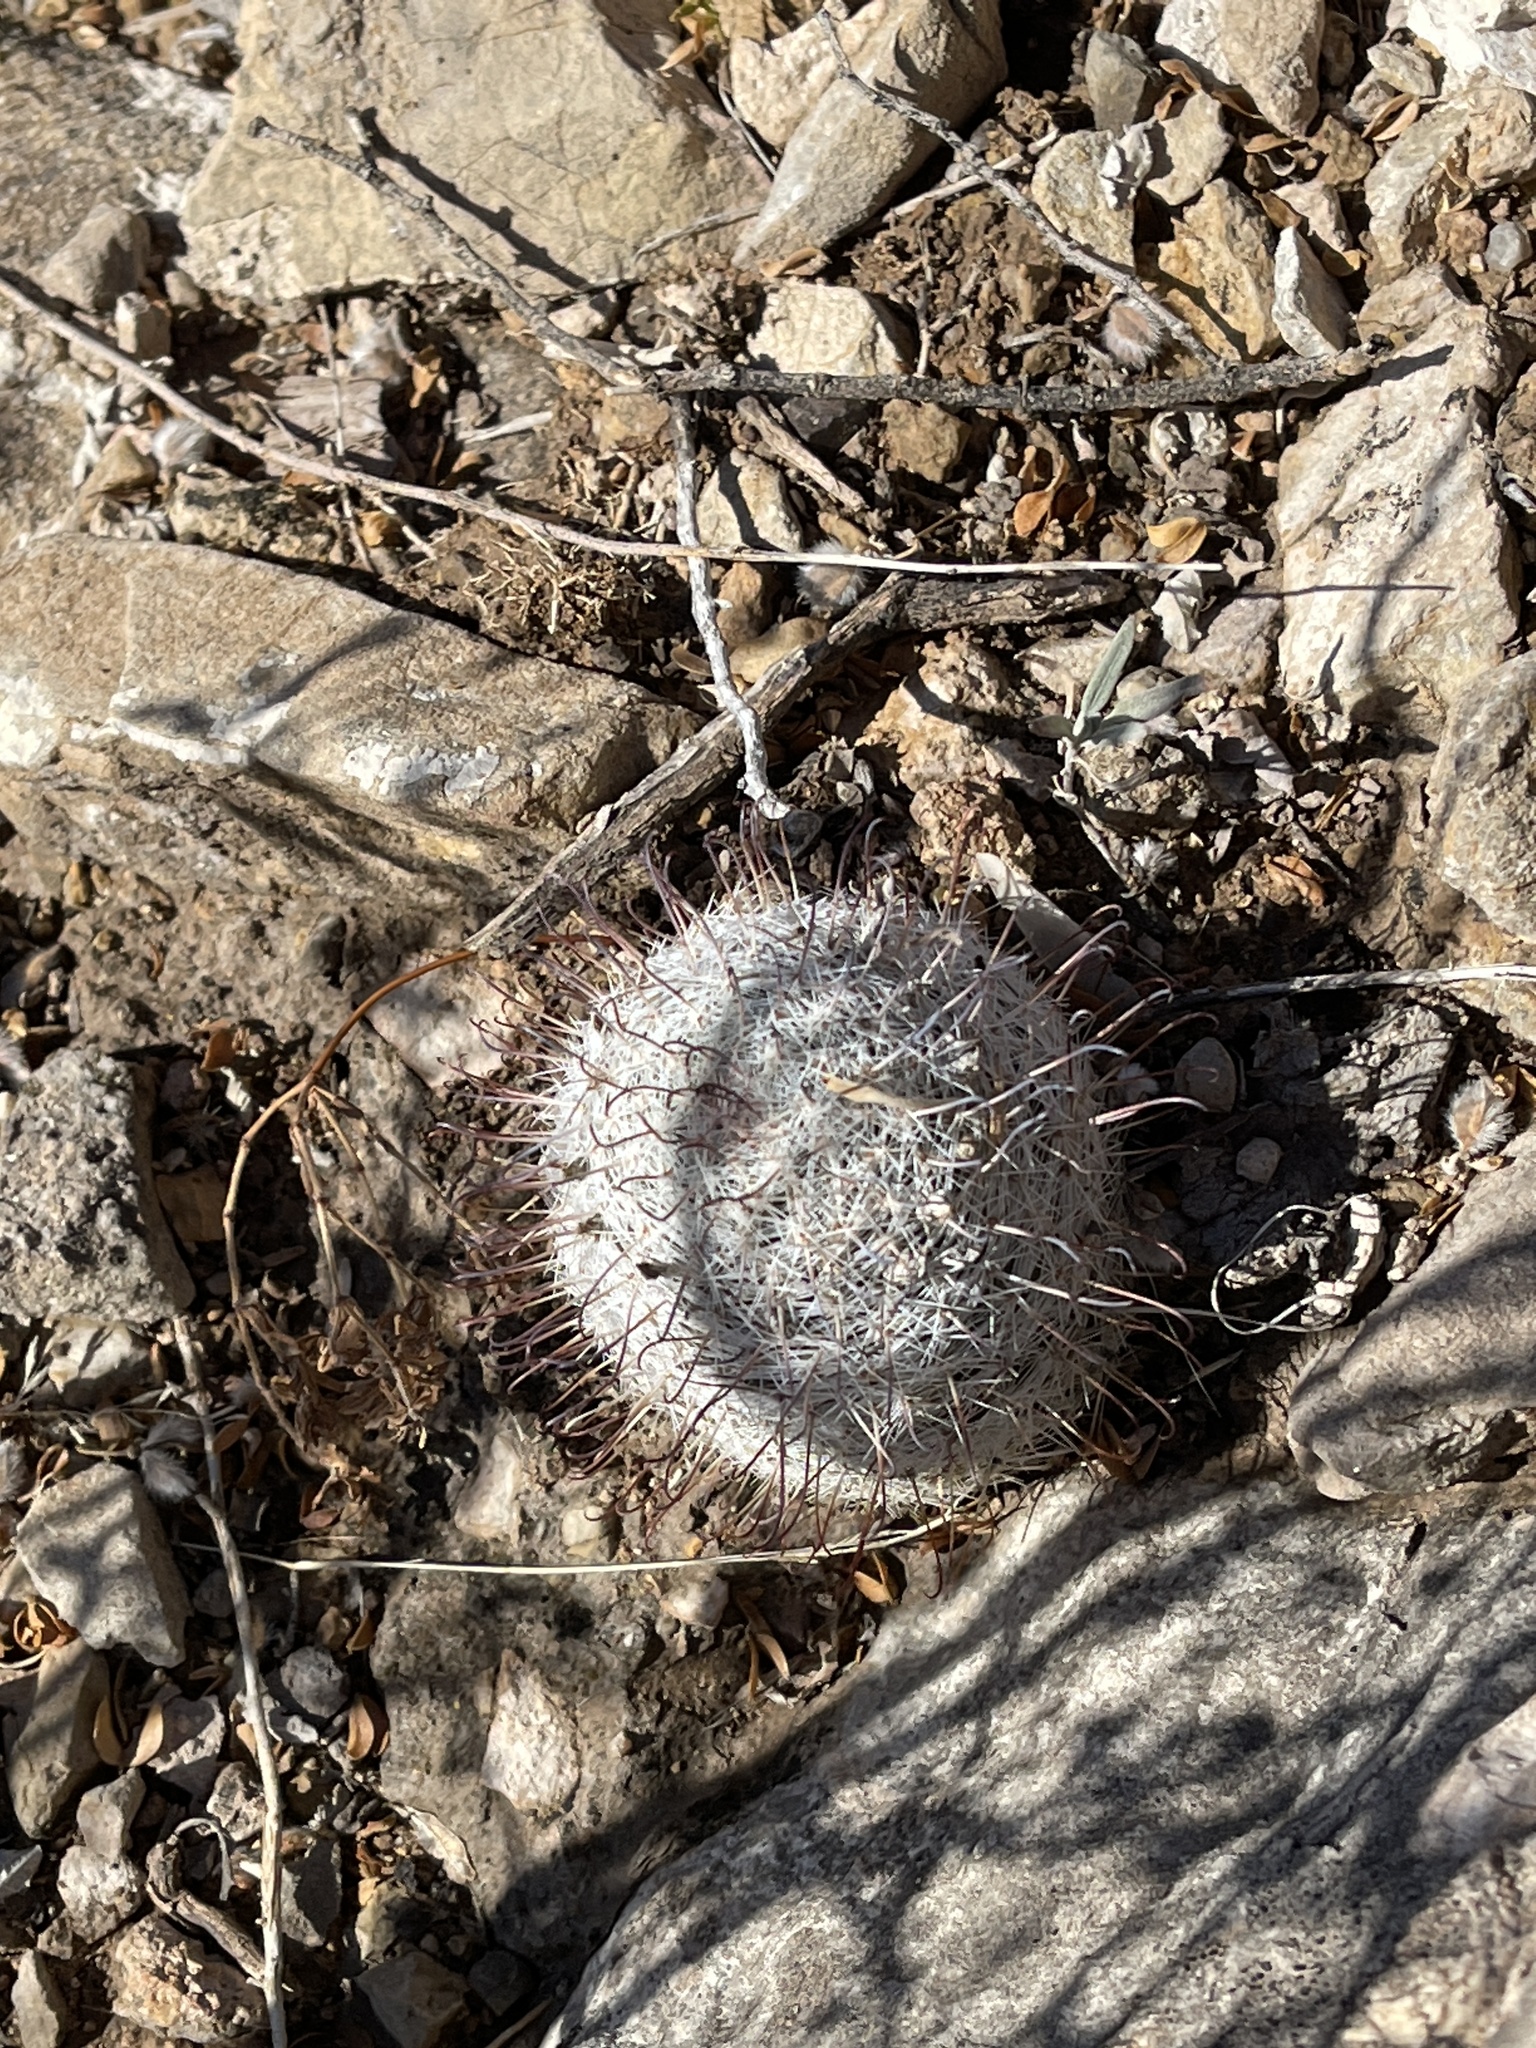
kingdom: Plantae
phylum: Tracheophyta
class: Magnoliopsida
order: Caryophyllales
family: Cactaceae
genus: Cochemiea
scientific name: Cochemiea grahamii
